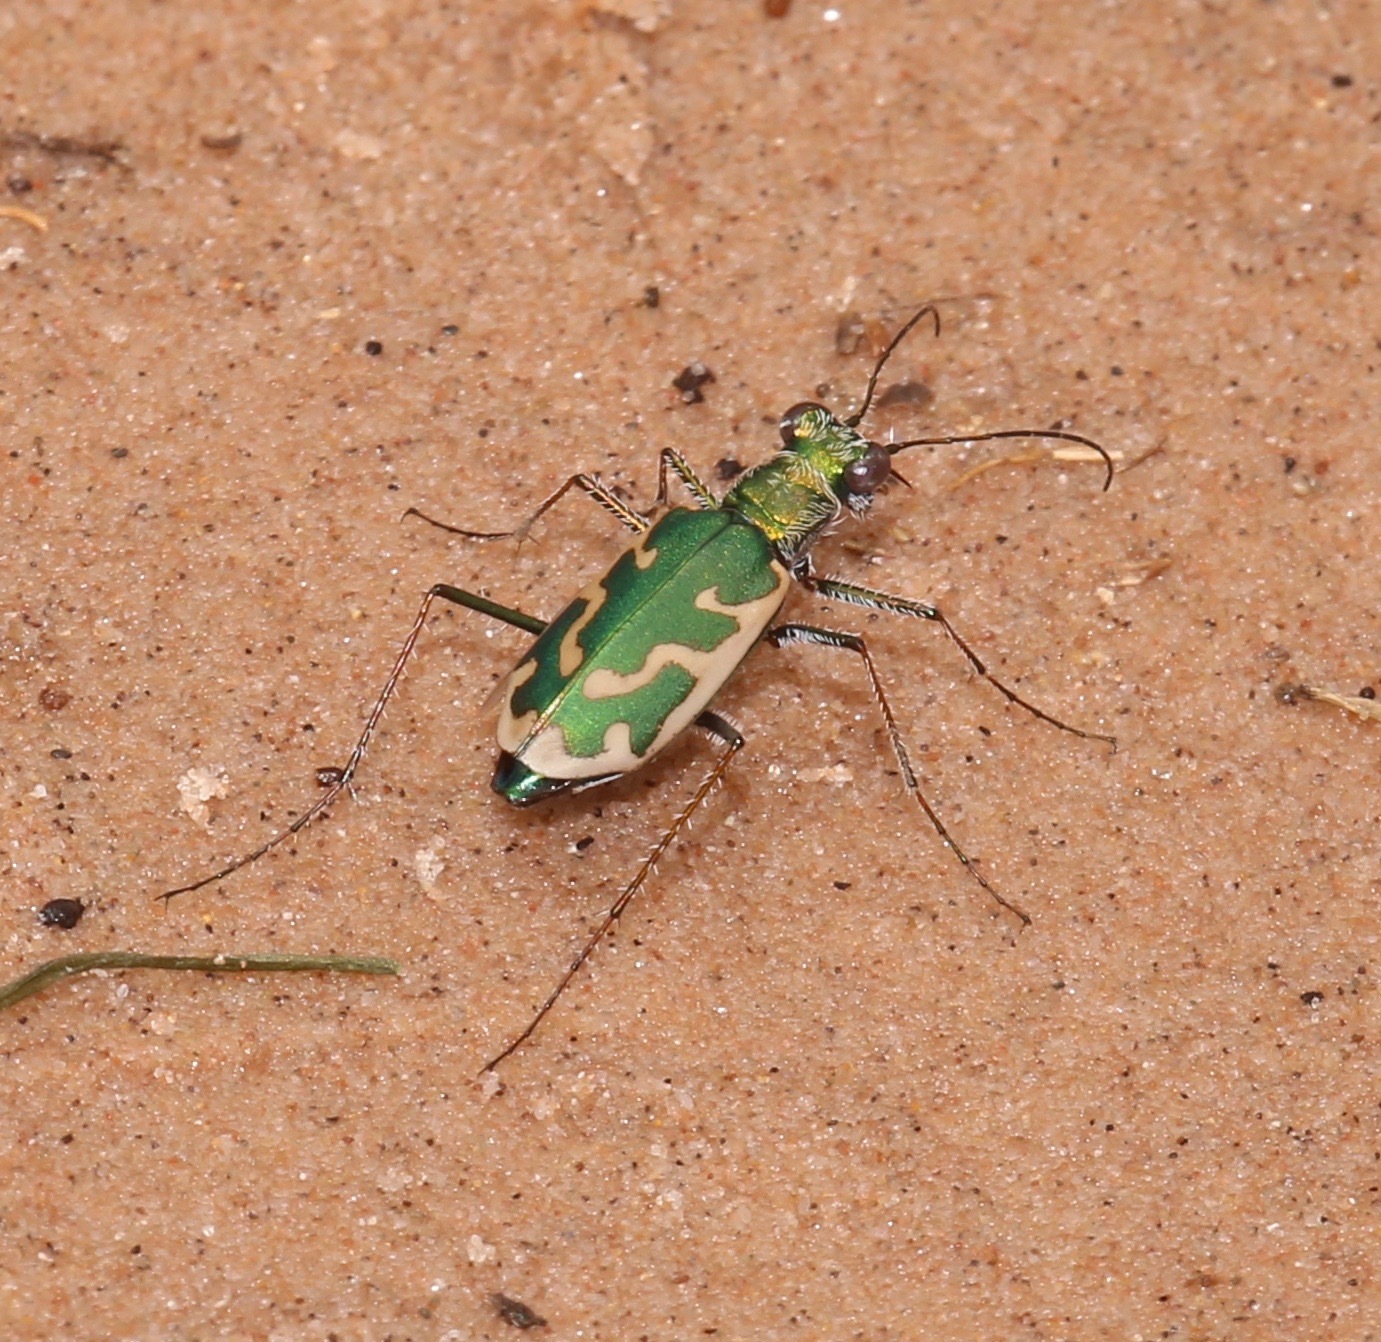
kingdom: Animalia
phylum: Arthropoda
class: Insecta
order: Coleoptera
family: Carabidae
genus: Ellipsoptera
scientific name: Ellipsoptera rubicunda
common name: Aridland tiger beetle
